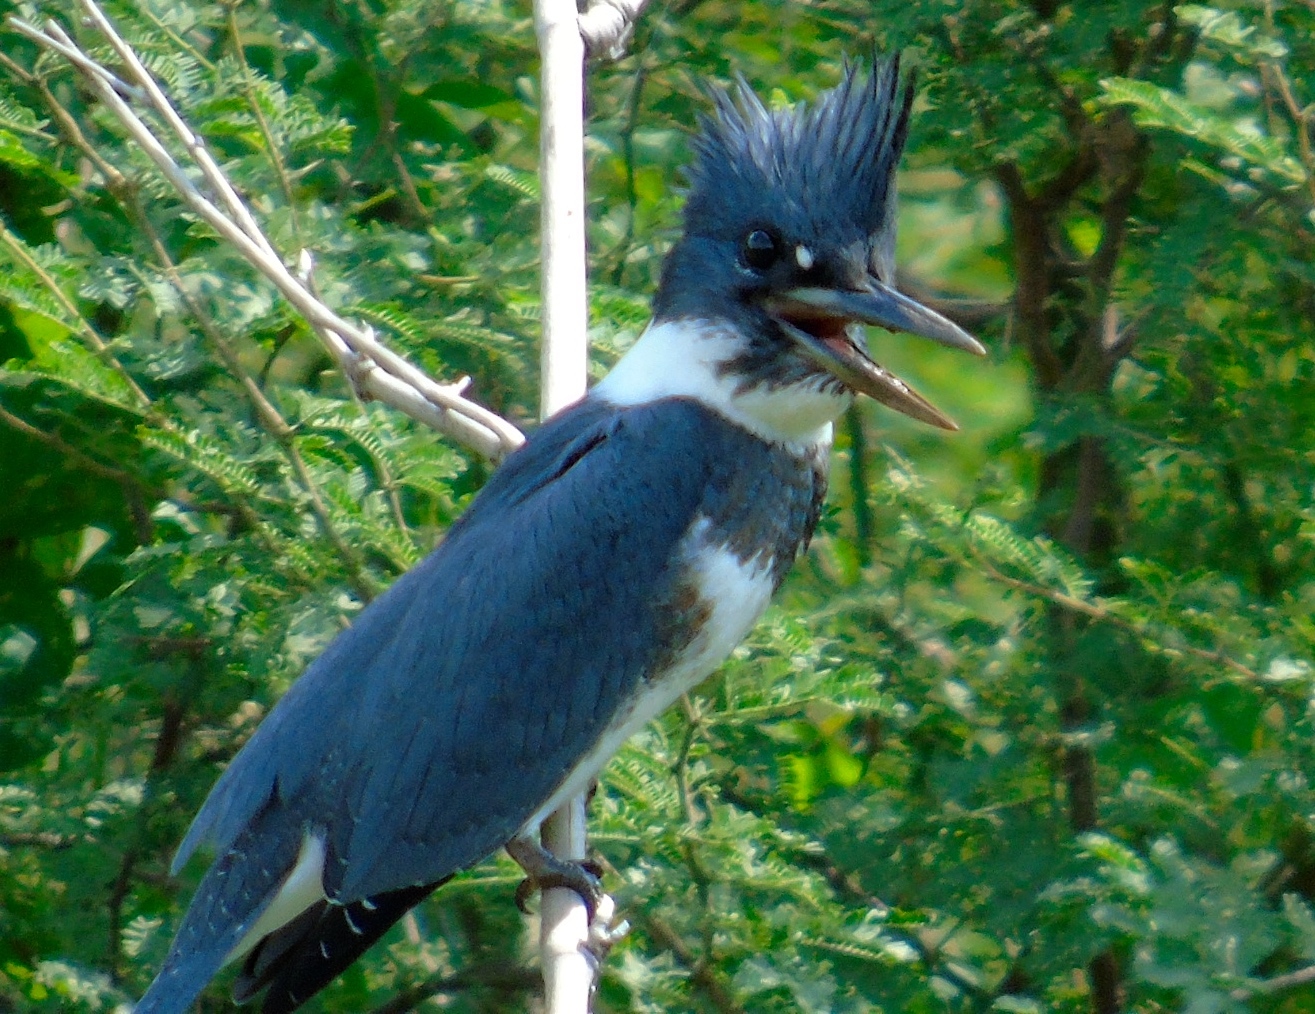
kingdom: Animalia
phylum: Chordata
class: Aves
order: Coraciiformes
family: Alcedinidae
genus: Megaceryle
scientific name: Megaceryle alcyon
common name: Belted kingfisher
